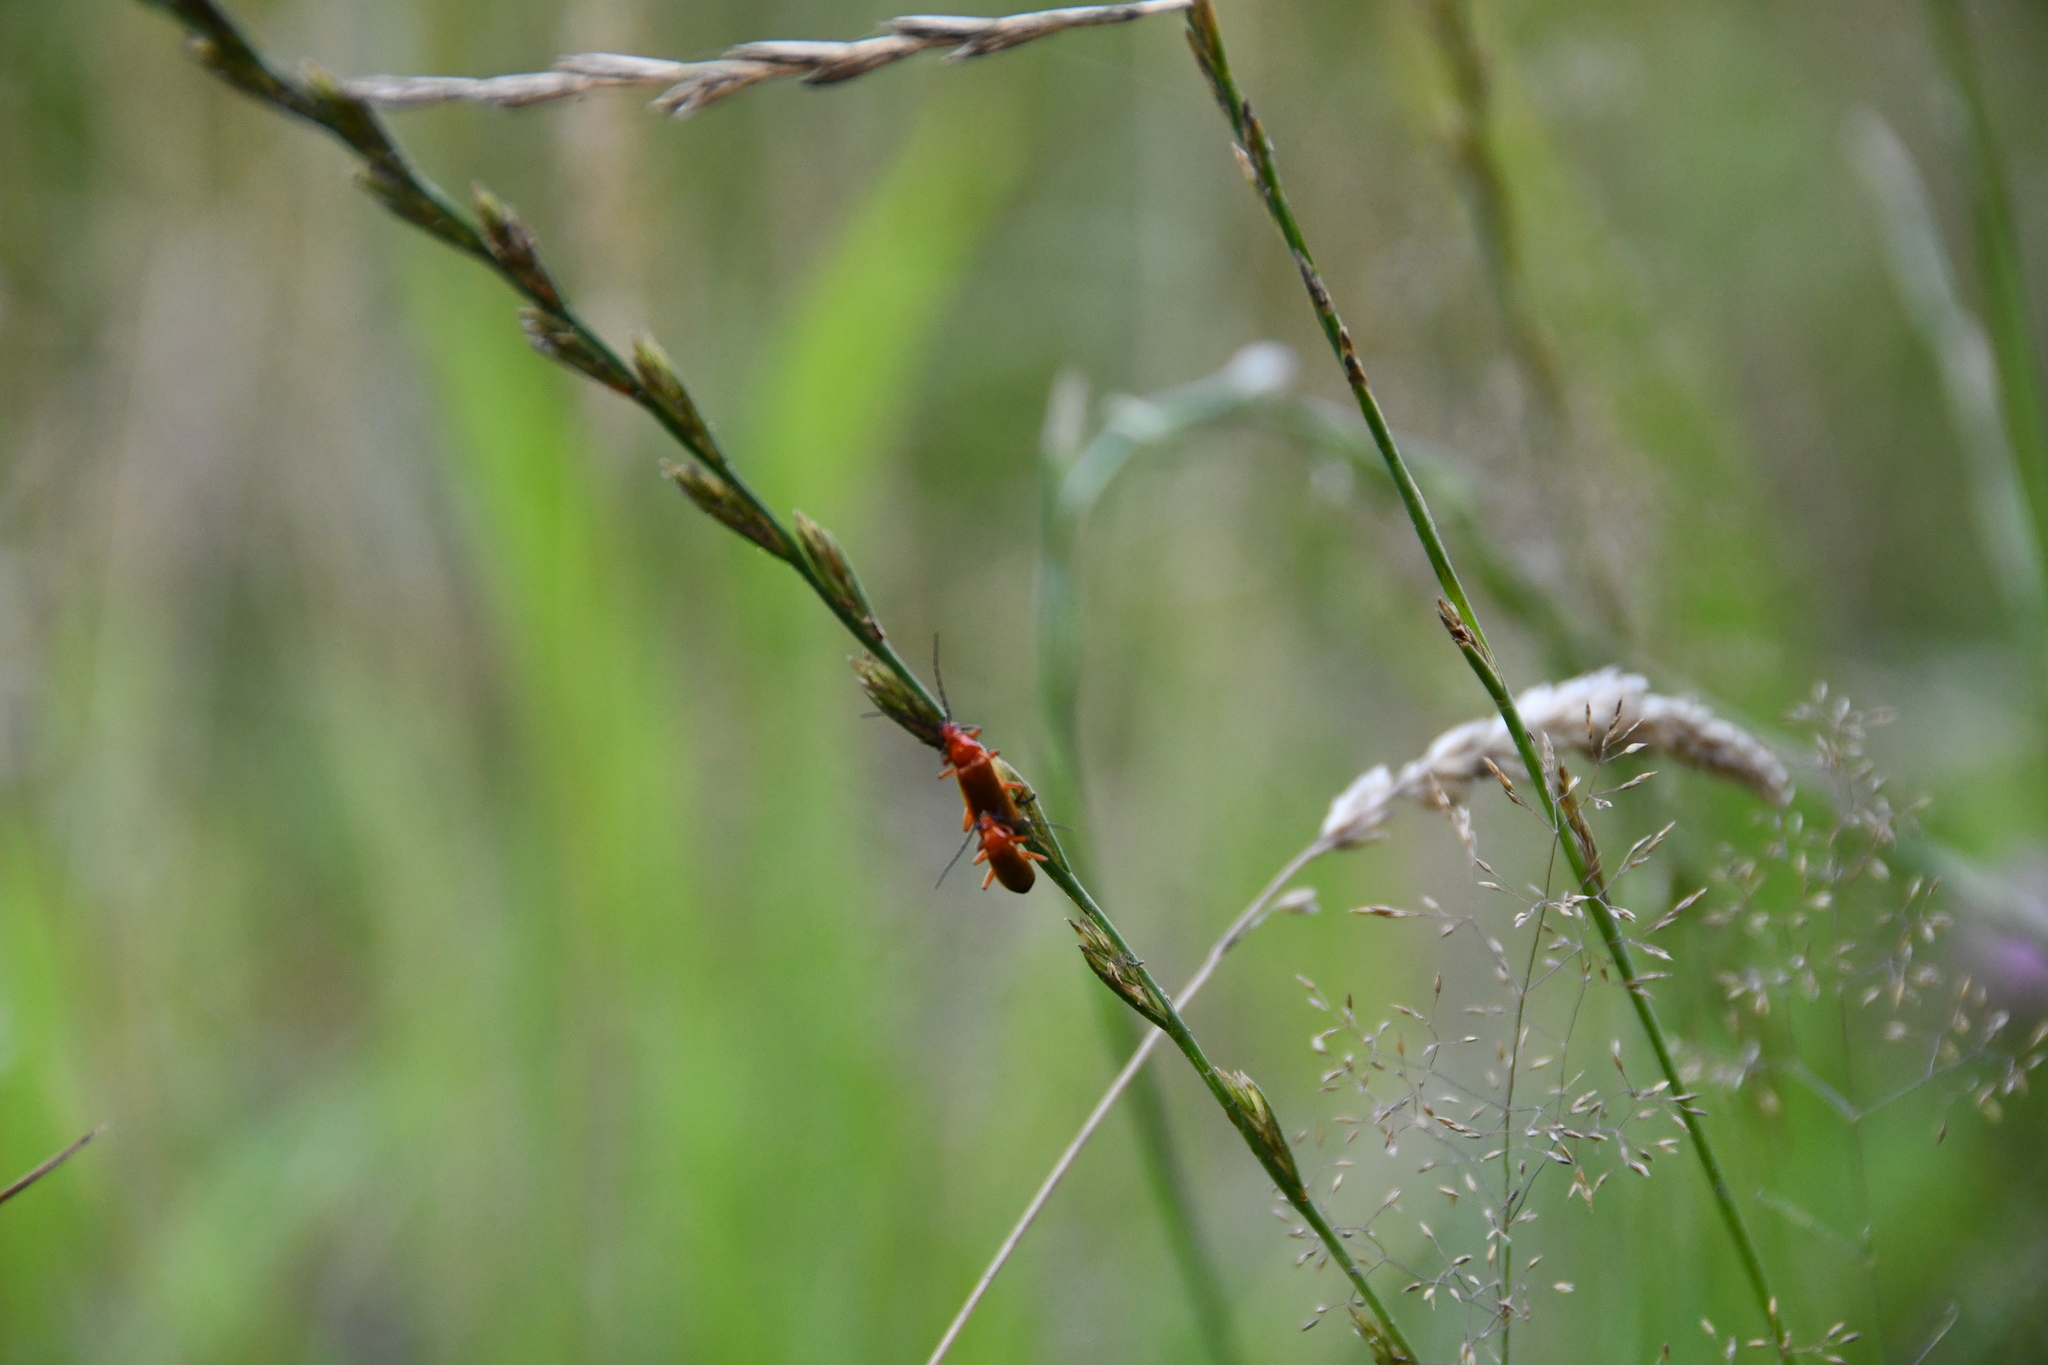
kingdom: Animalia
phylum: Arthropoda
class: Insecta
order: Coleoptera
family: Cantharidae
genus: Rhagonycha
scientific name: Rhagonycha fulva
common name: Common red soldier beetle
